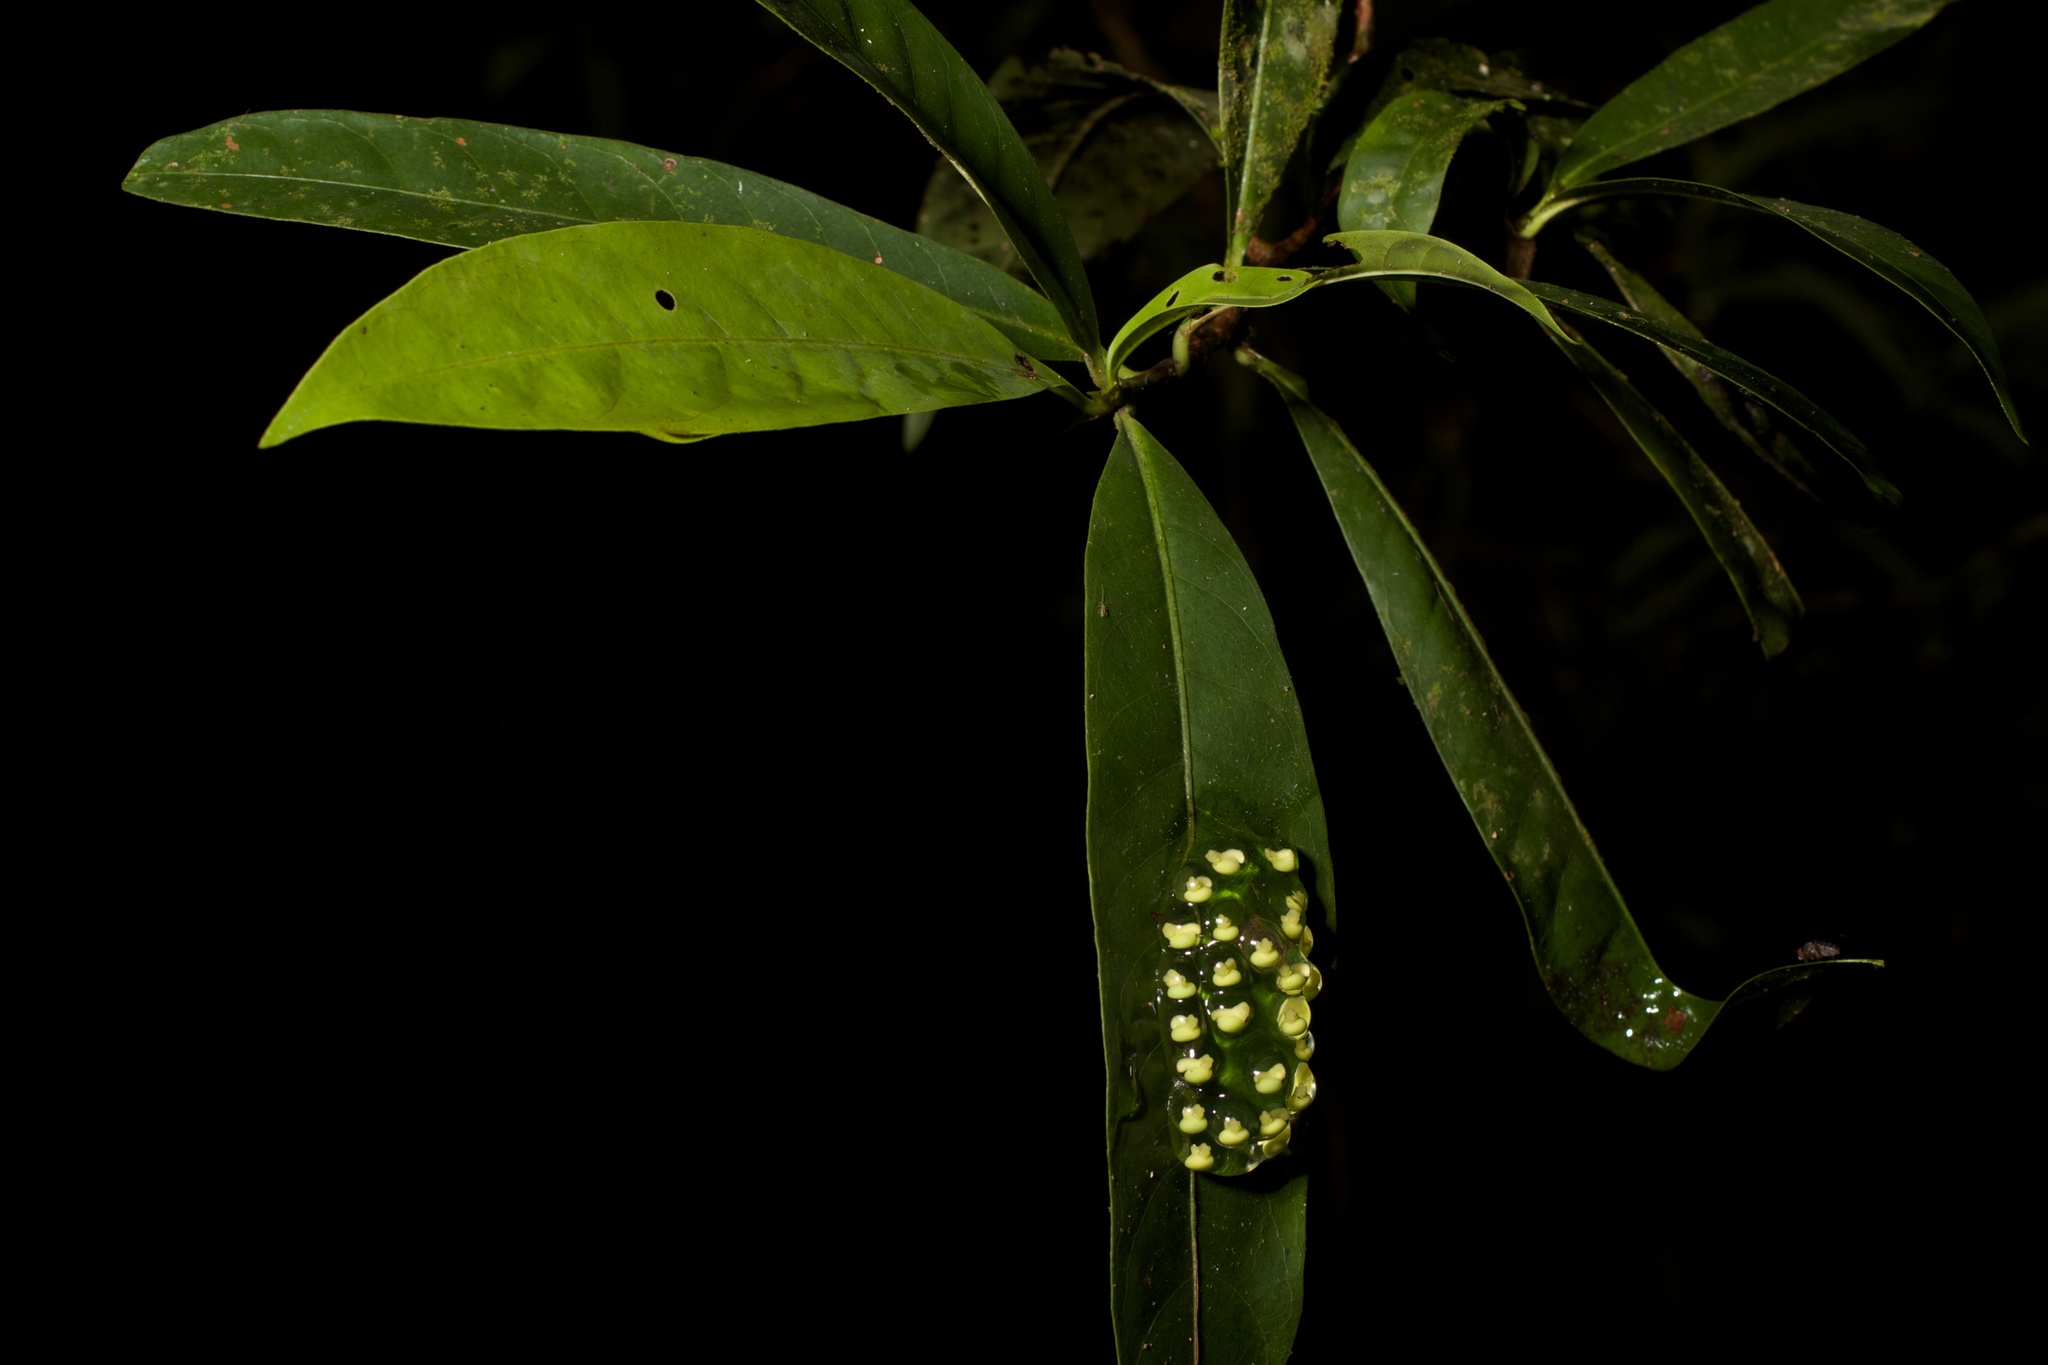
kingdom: Animalia
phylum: Chordata
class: Amphibia
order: Anura
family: Phyllomedusidae
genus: Agalychnis
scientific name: Agalychnis callidryas
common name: Red-eyed treefrog
